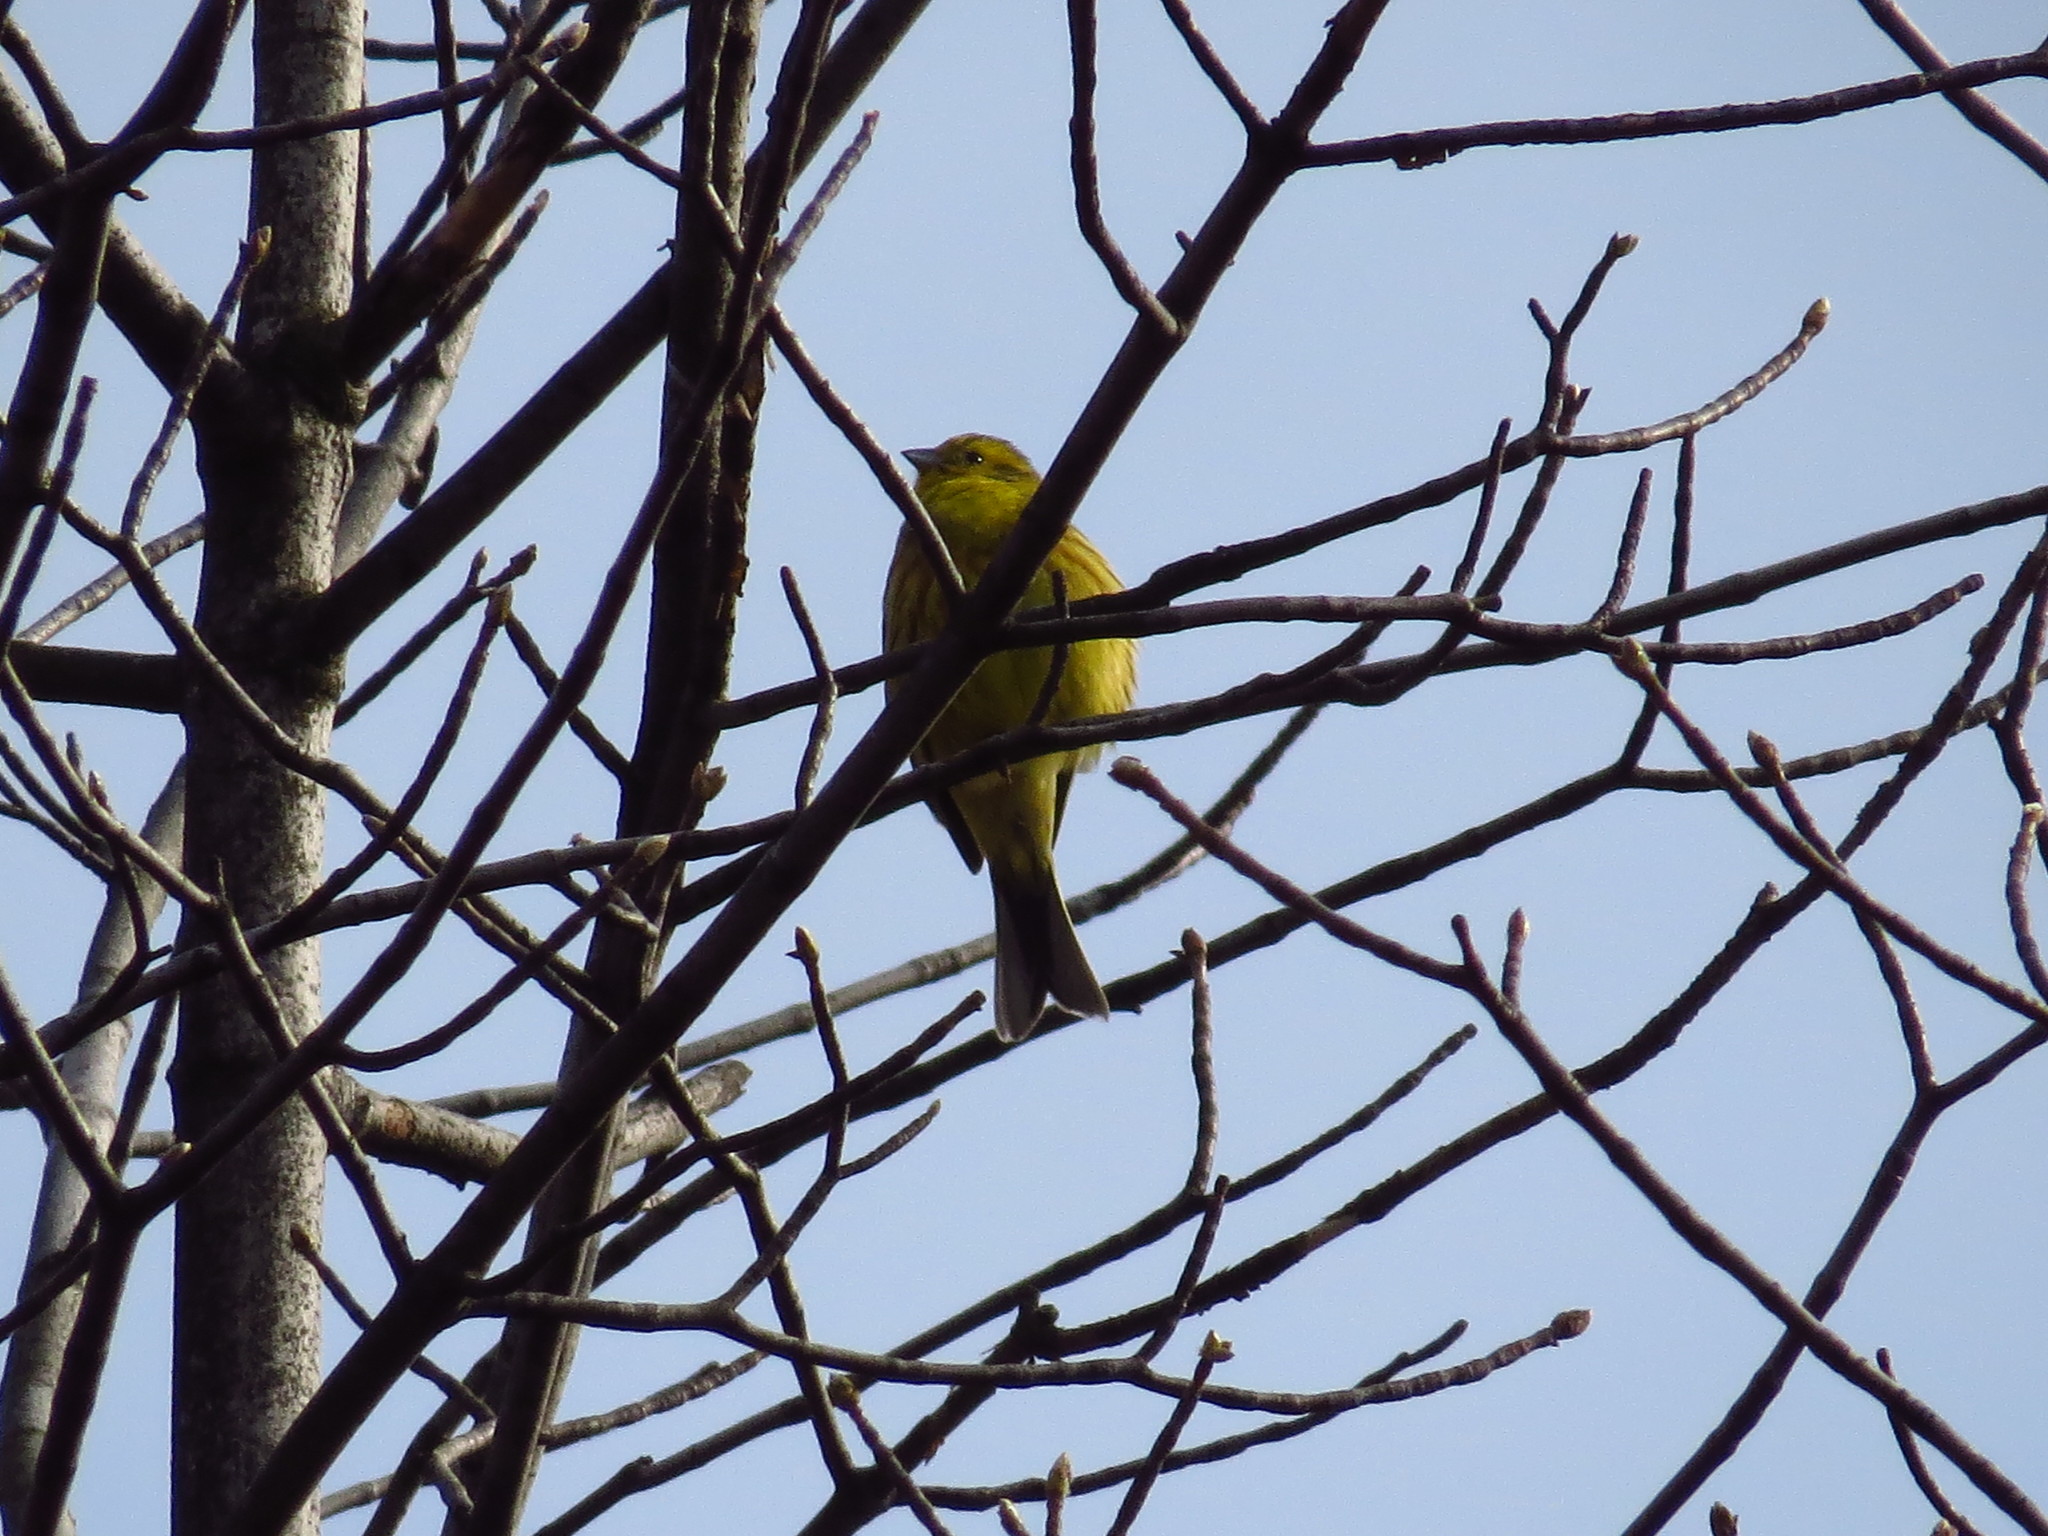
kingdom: Animalia
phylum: Chordata
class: Aves
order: Passeriformes
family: Emberizidae
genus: Emberiza
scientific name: Emberiza citrinella
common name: Yellowhammer
